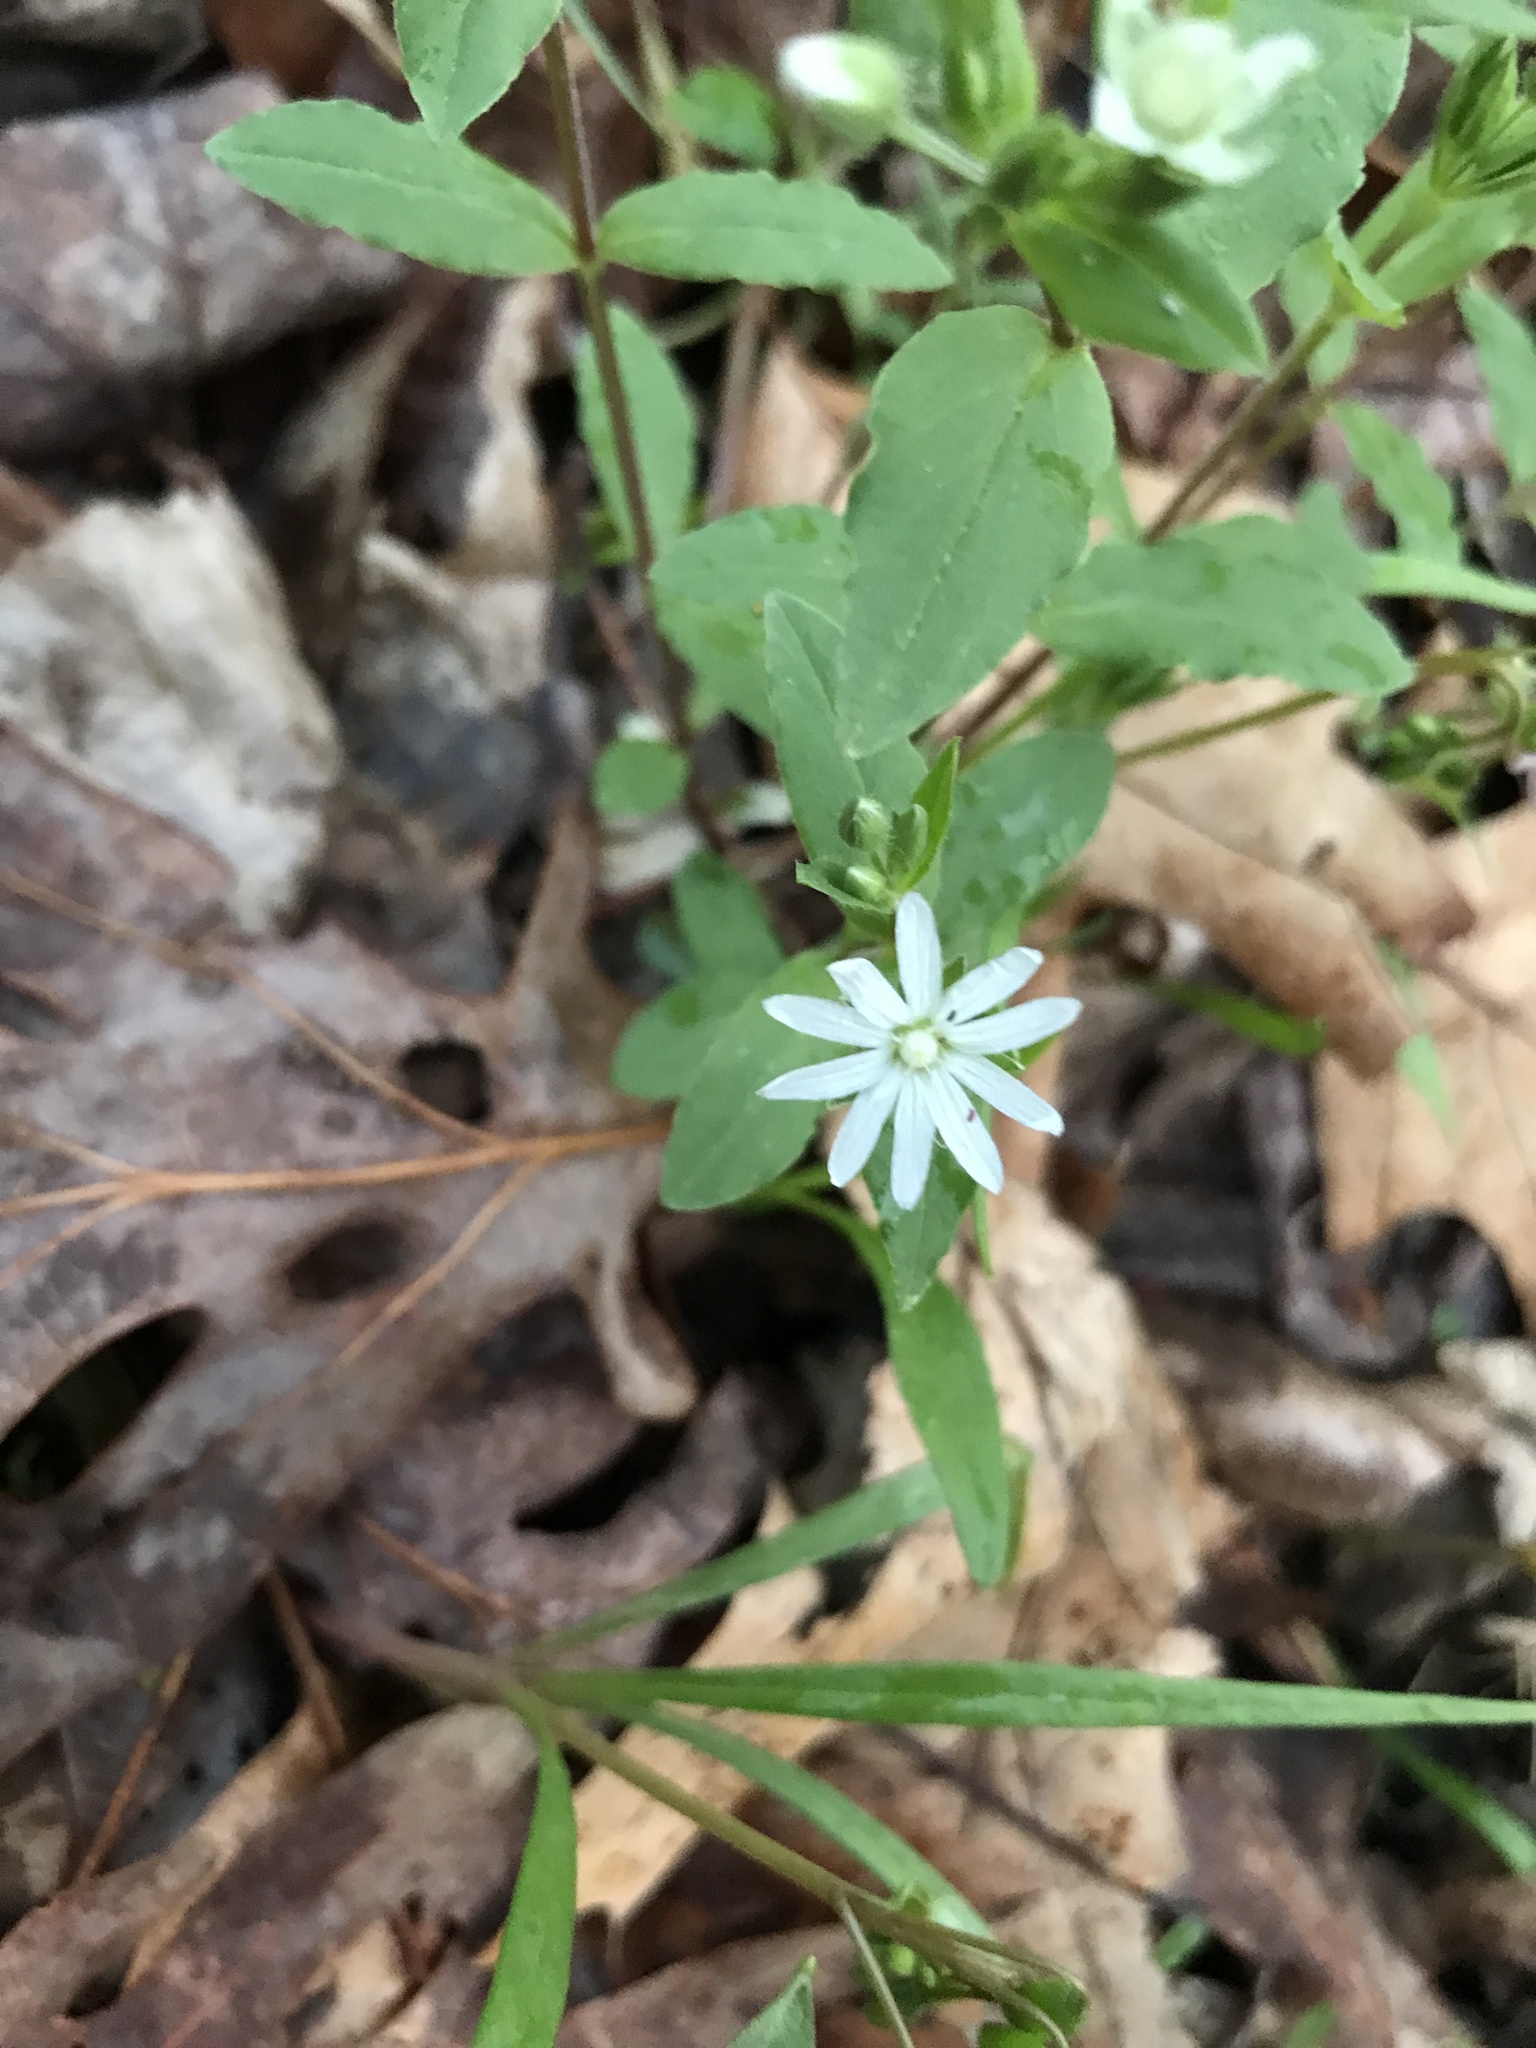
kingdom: Plantae
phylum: Tracheophyta
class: Magnoliopsida
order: Caryophyllales
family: Caryophyllaceae
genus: Stellaria
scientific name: Stellaria pubera
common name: Star chickweed
